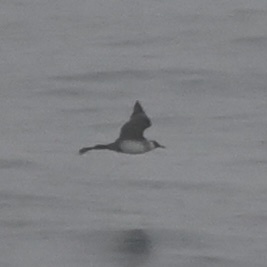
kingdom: Animalia
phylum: Chordata
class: Aves
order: Charadriiformes
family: Stercorariidae
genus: Stercorarius
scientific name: Stercorarius pomarinus
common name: Pomarine jaeger
